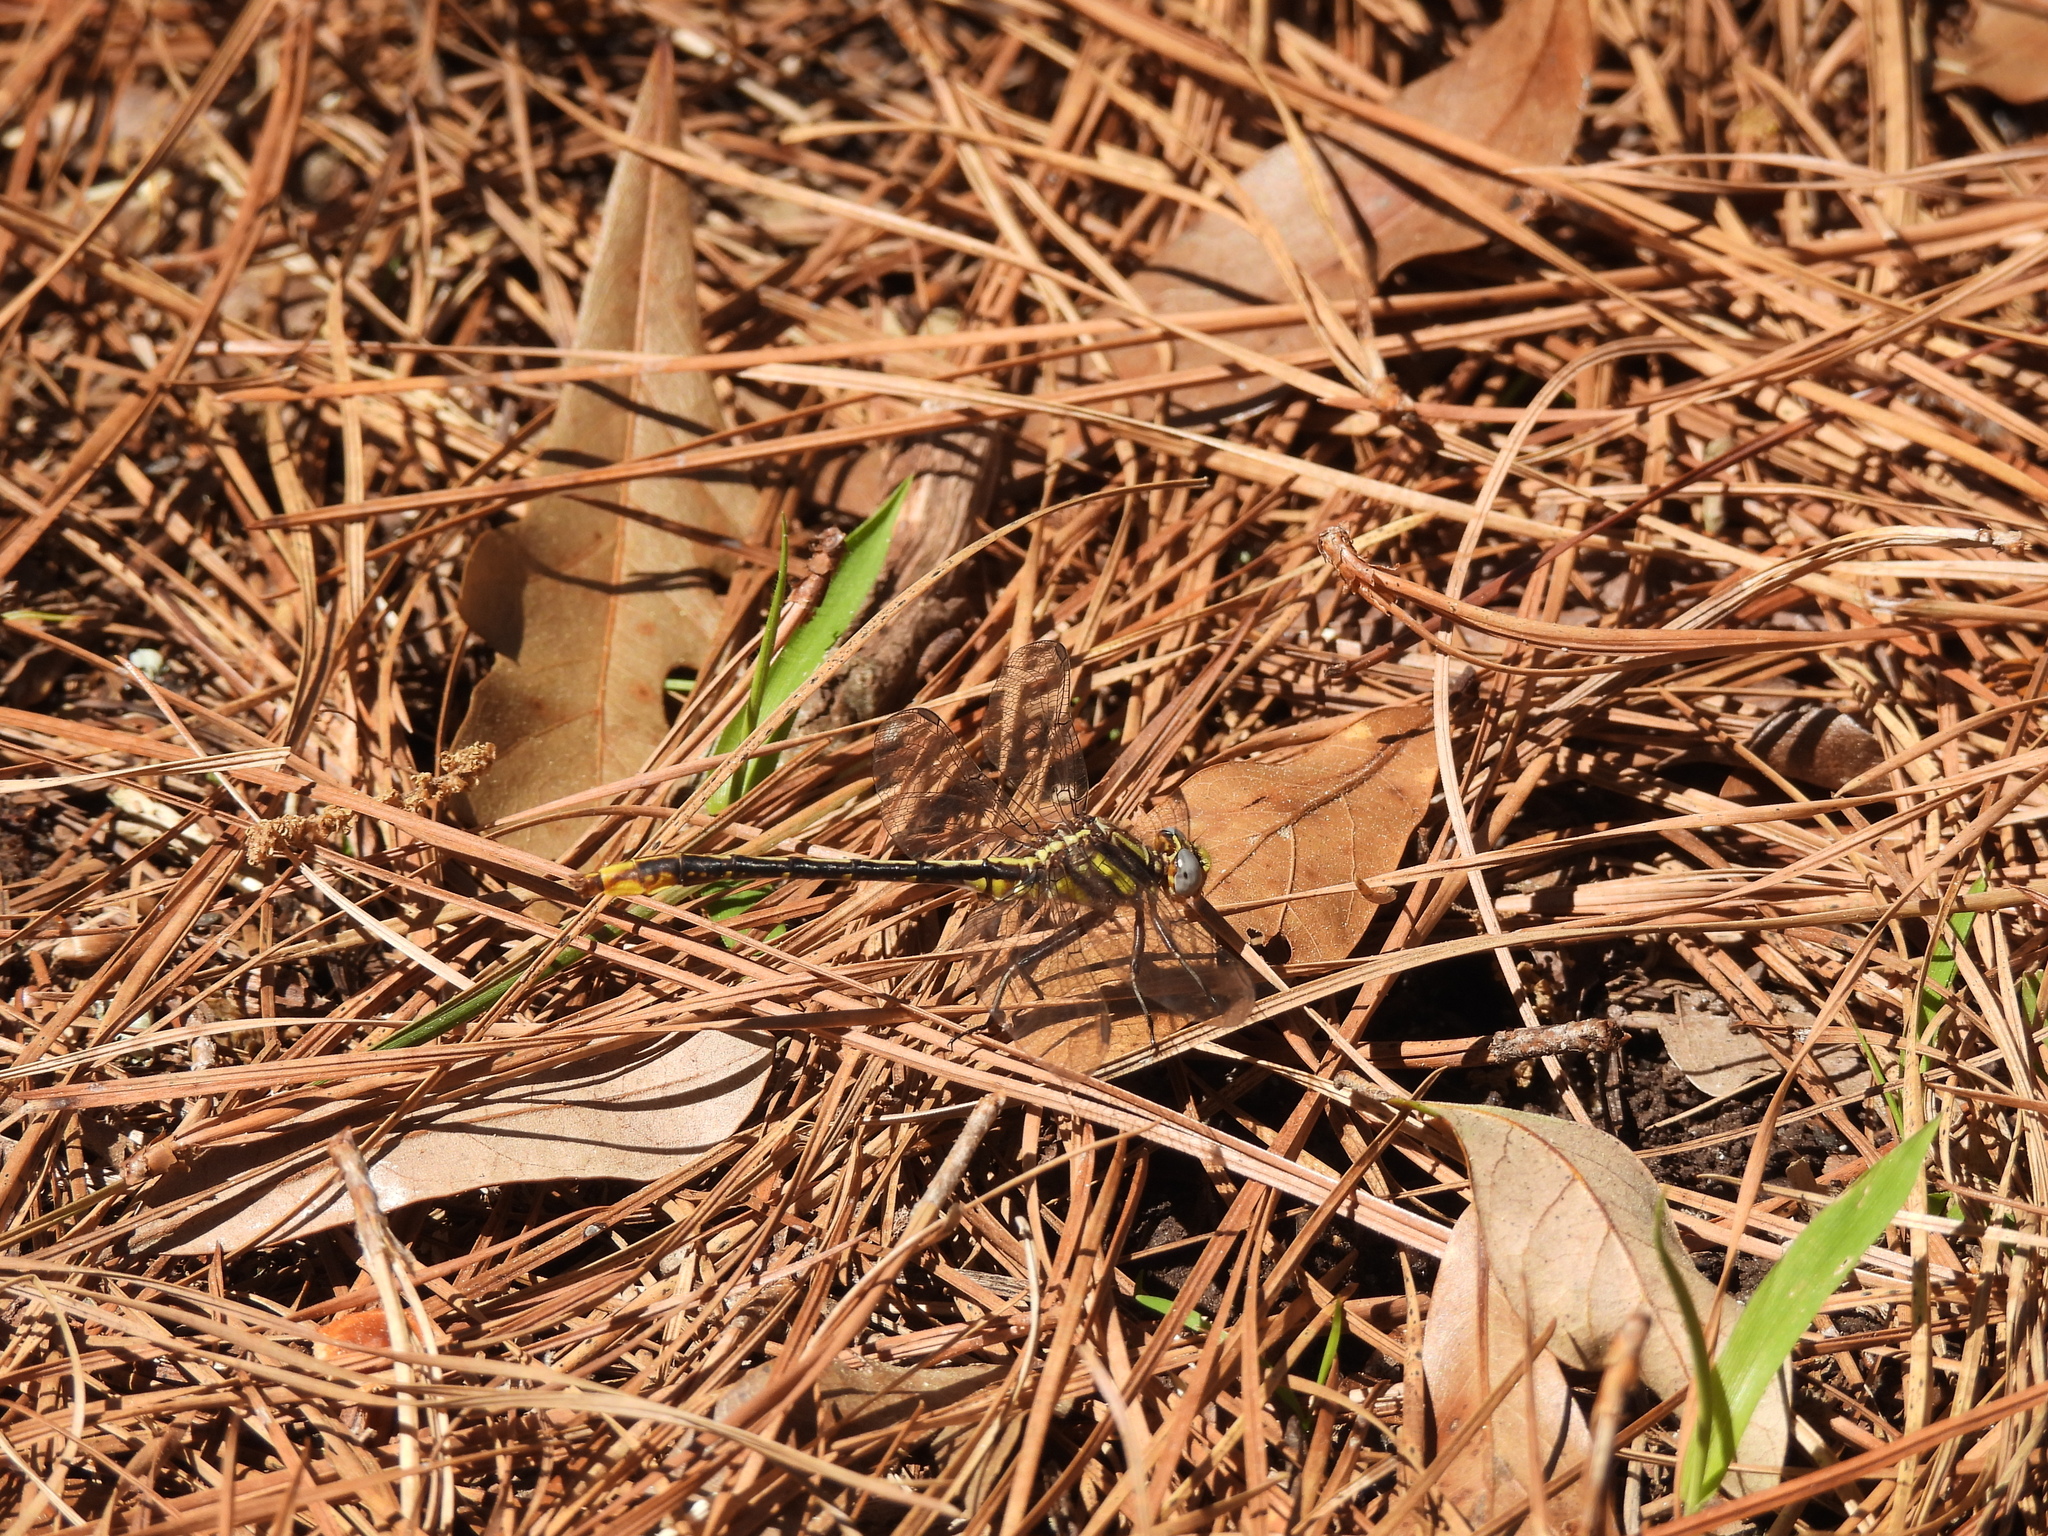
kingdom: Animalia
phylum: Arthropoda
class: Insecta
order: Odonata
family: Gomphidae
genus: Phanogomphus
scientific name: Phanogomphus exilis
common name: Lancet clubtail
